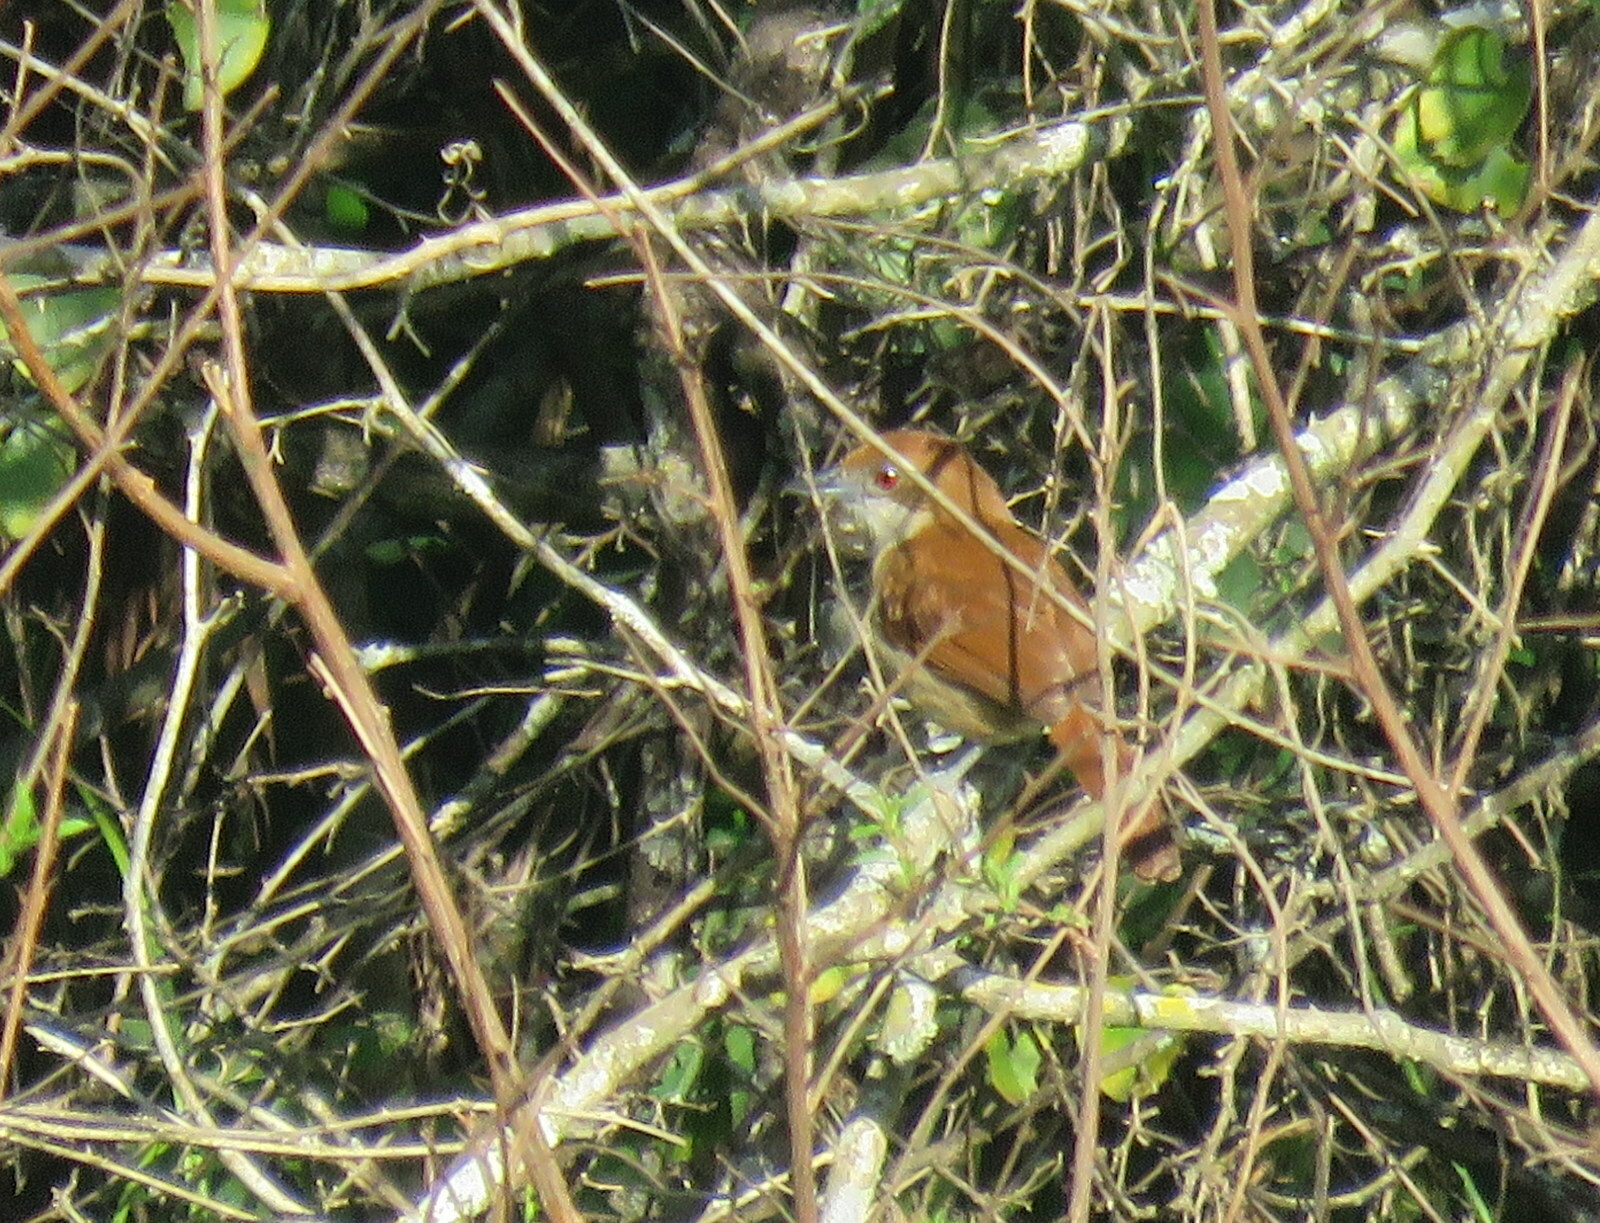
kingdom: Animalia
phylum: Chordata
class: Aves
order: Passeriformes
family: Thamnophilidae
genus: Taraba
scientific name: Taraba major
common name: Great antshrike
